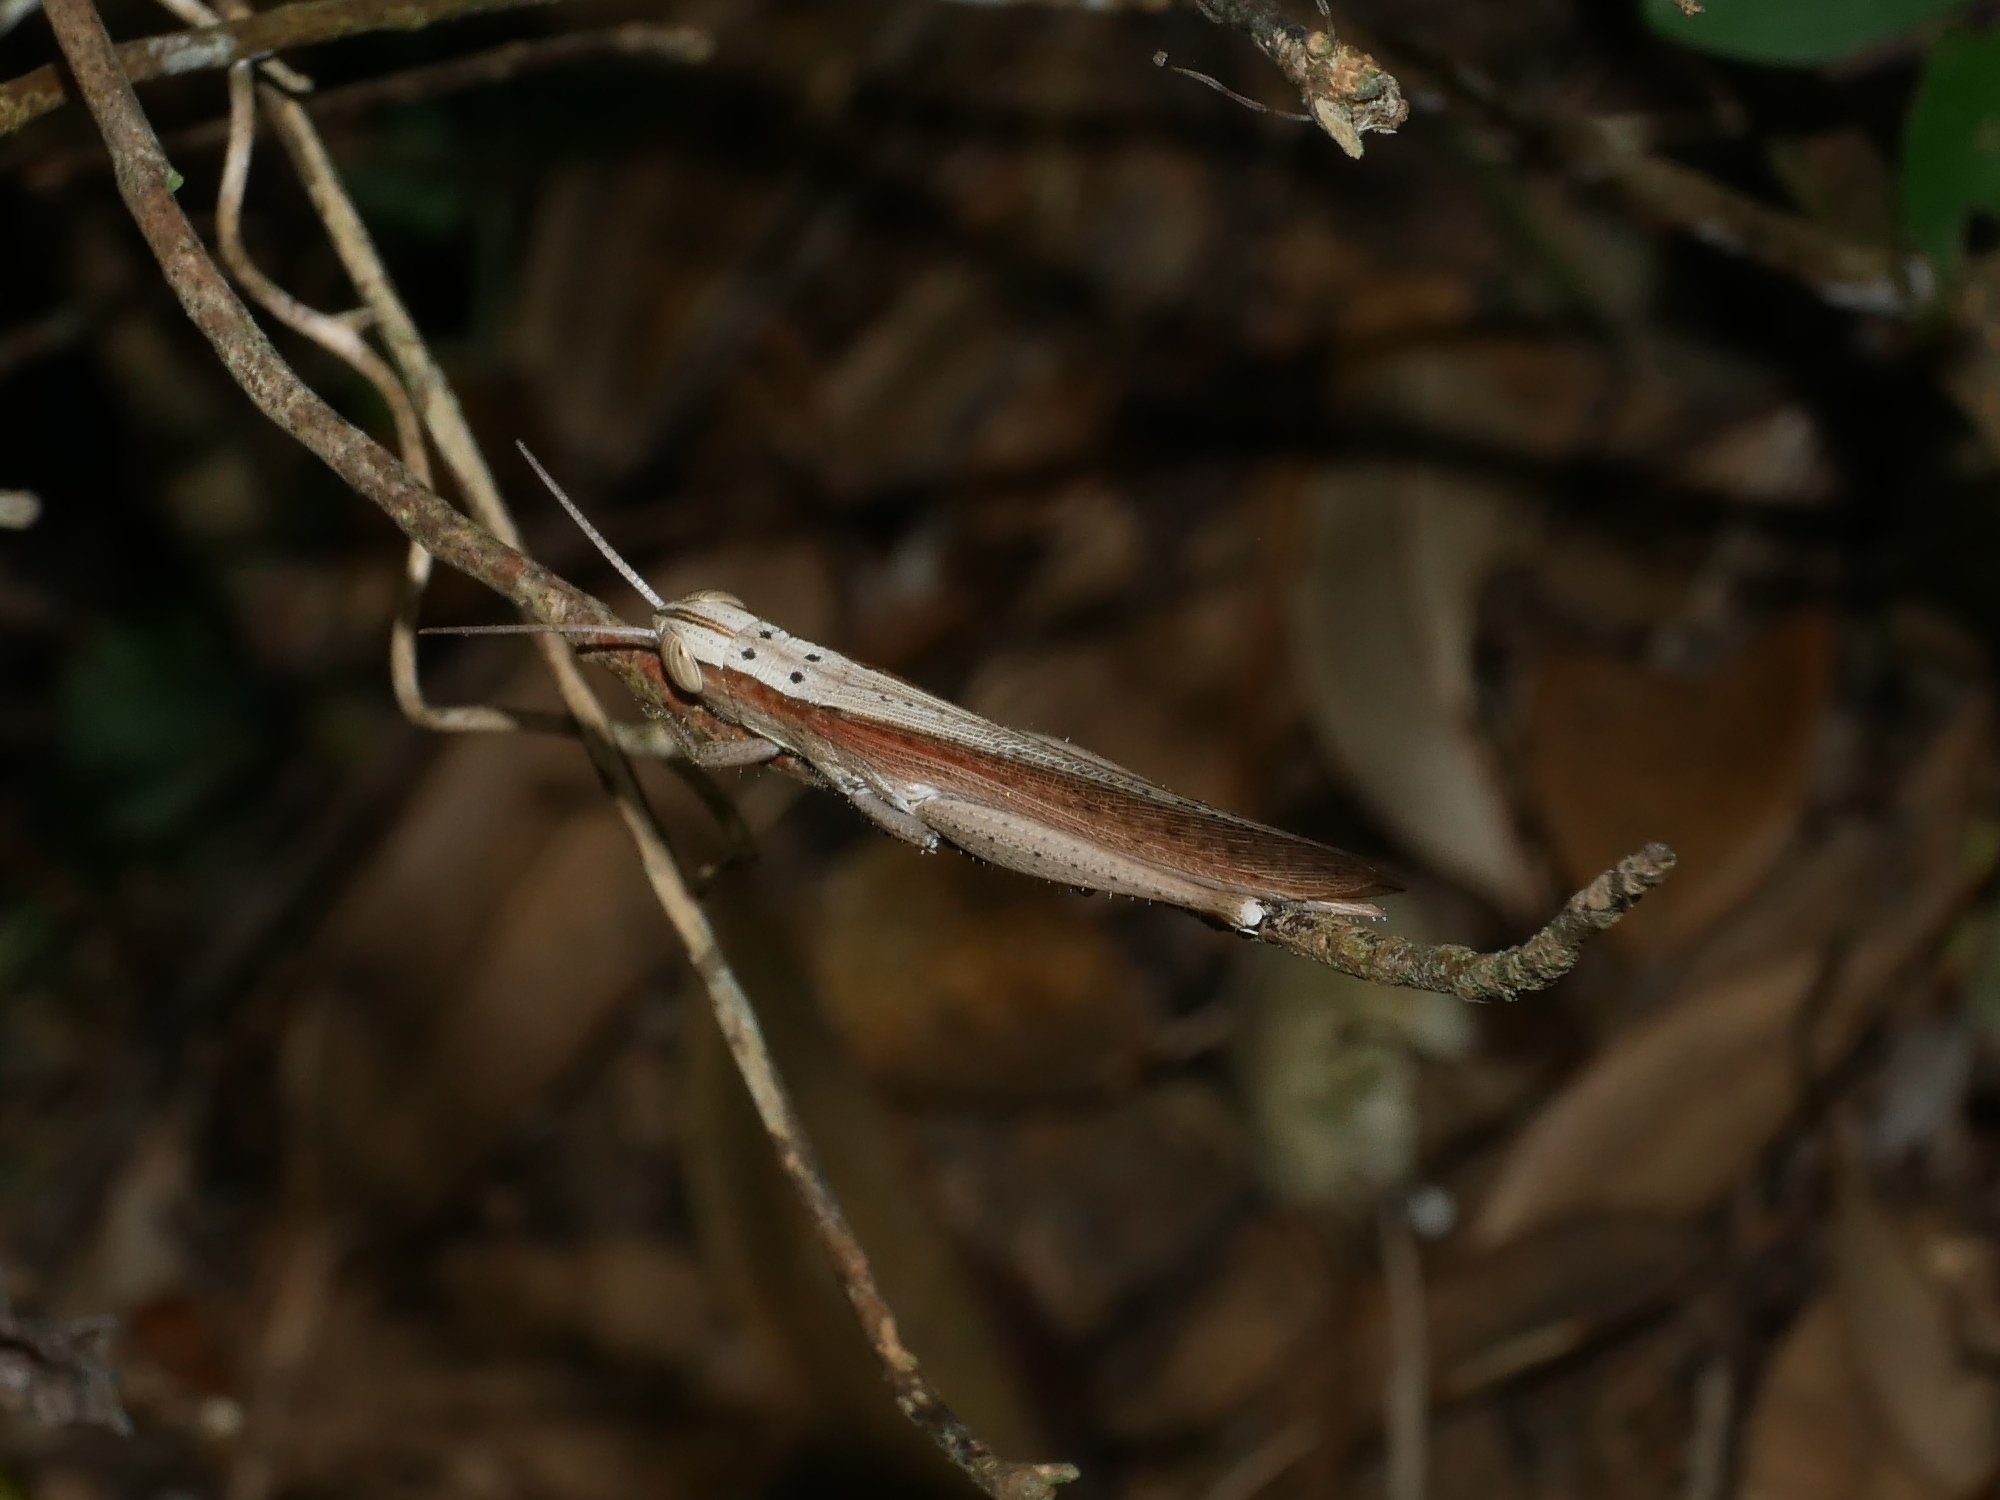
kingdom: Animalia
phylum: Arthropoda
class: Insecta
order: Orthoptera
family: Acrididae
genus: Oxyrrhepes
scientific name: Oxyrrhepes obtusa
